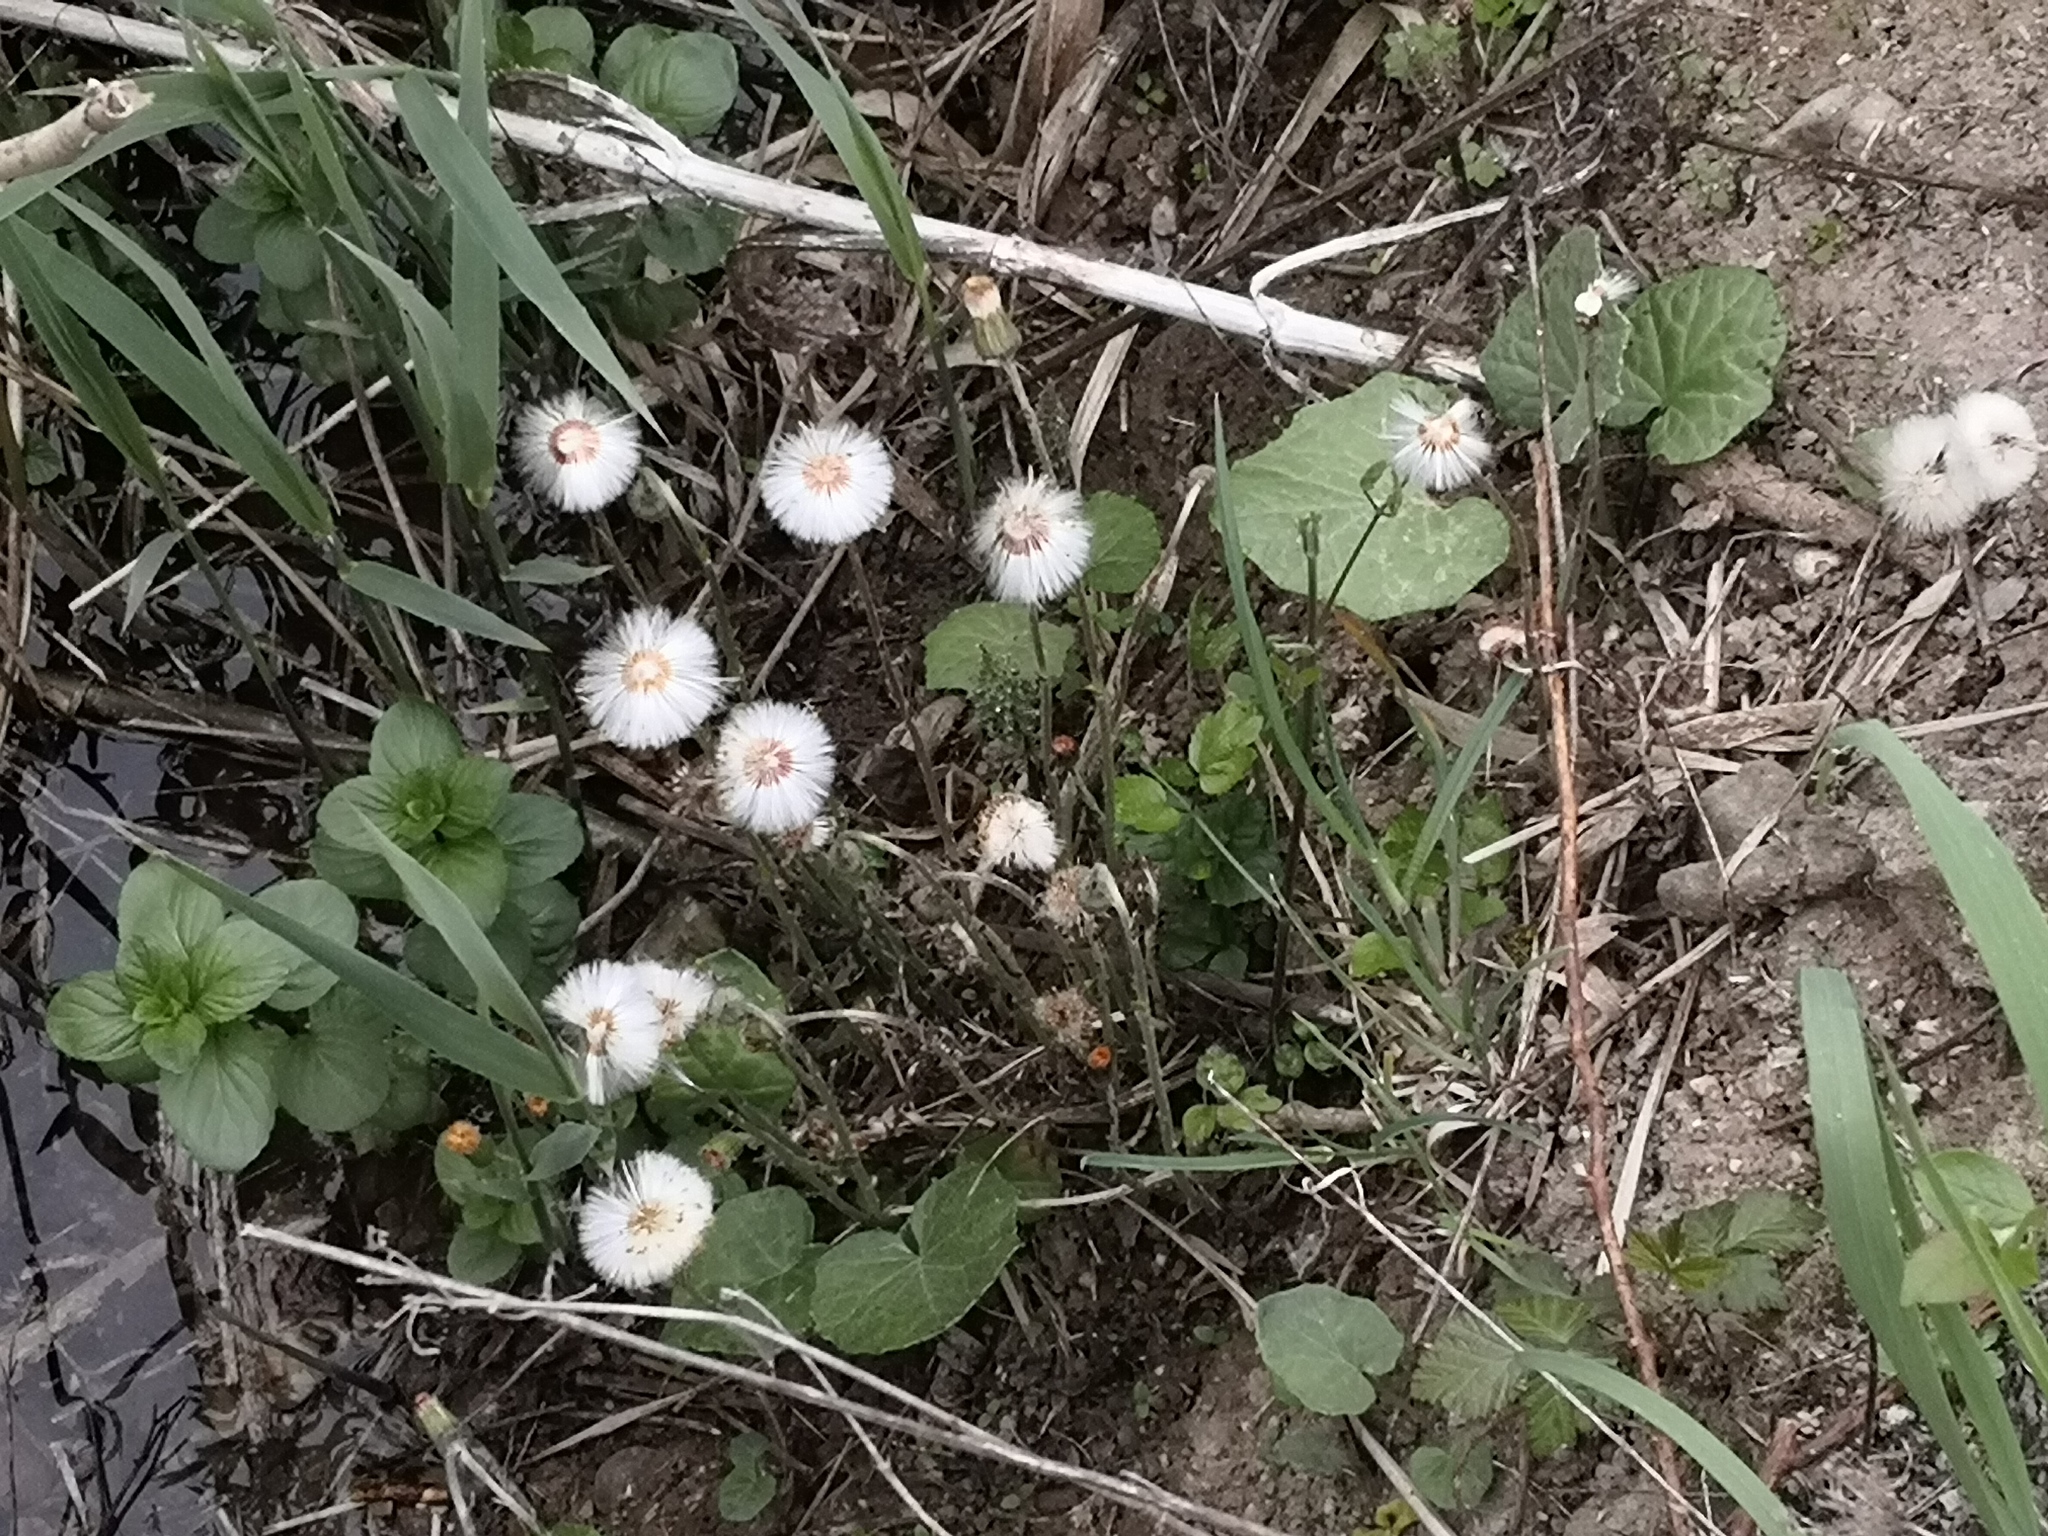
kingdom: Plantae
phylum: Tracheophyta
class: Magnoliopsida
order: Asterales
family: Asteraceae
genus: Tussilago
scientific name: Tussilago farfara
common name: Coltsfoot
